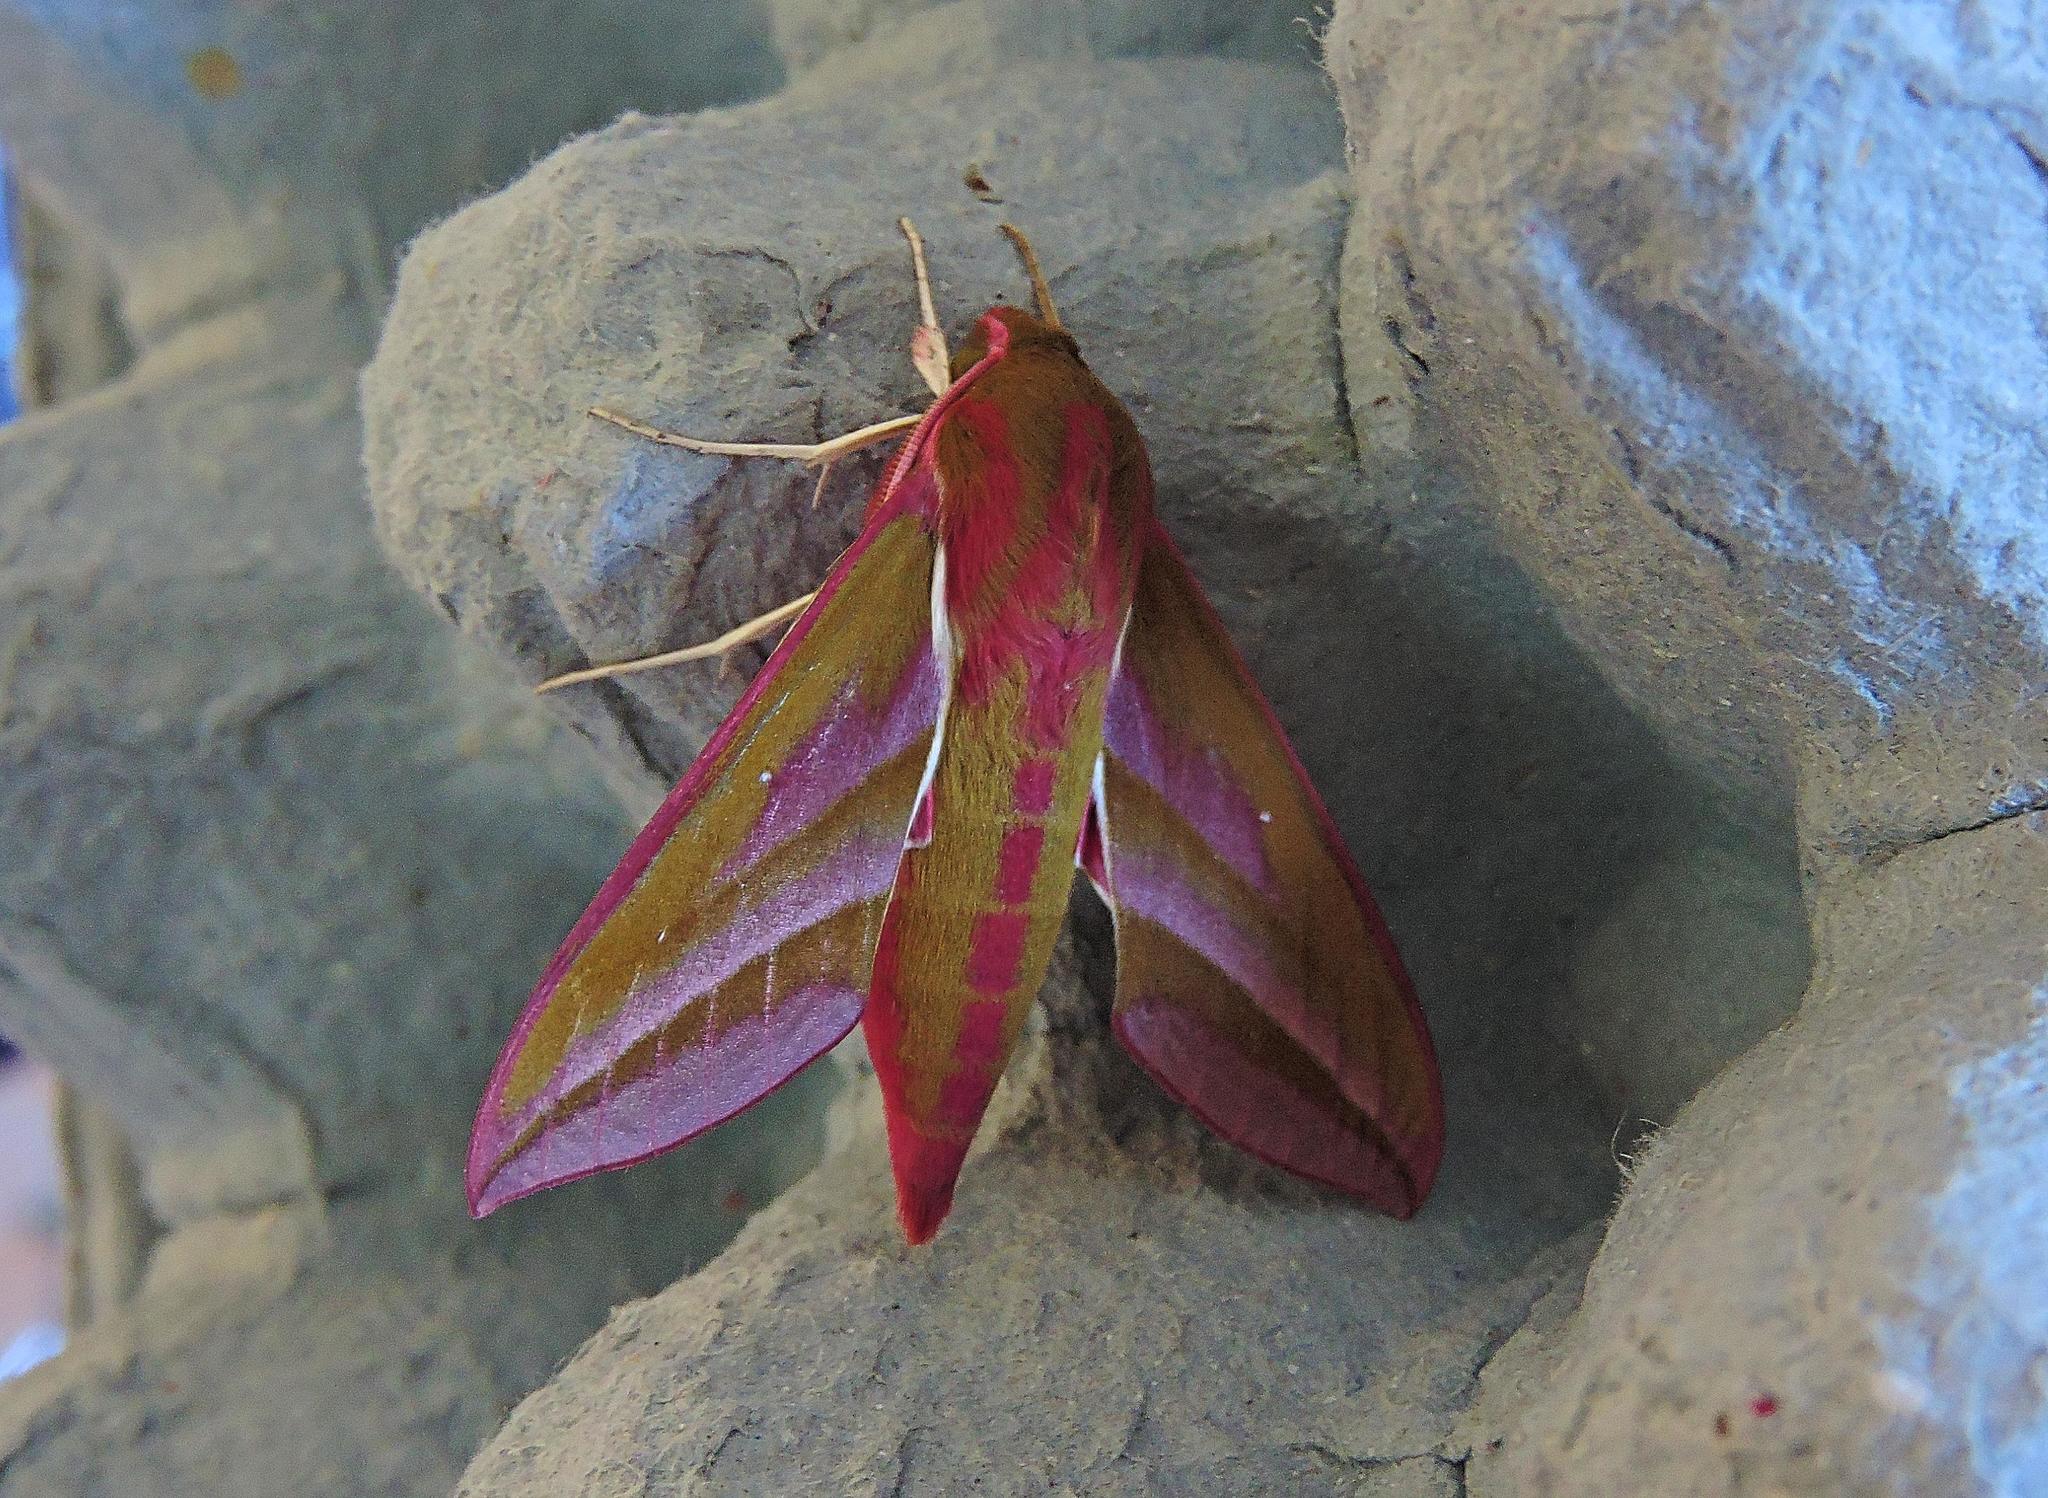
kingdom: Animalia
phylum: Arthropoda
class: Insecta
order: Lepidoptera
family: Sphingidae
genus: Deilephila
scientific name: Deilephila elpenor
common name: Elephant hawk-moth
